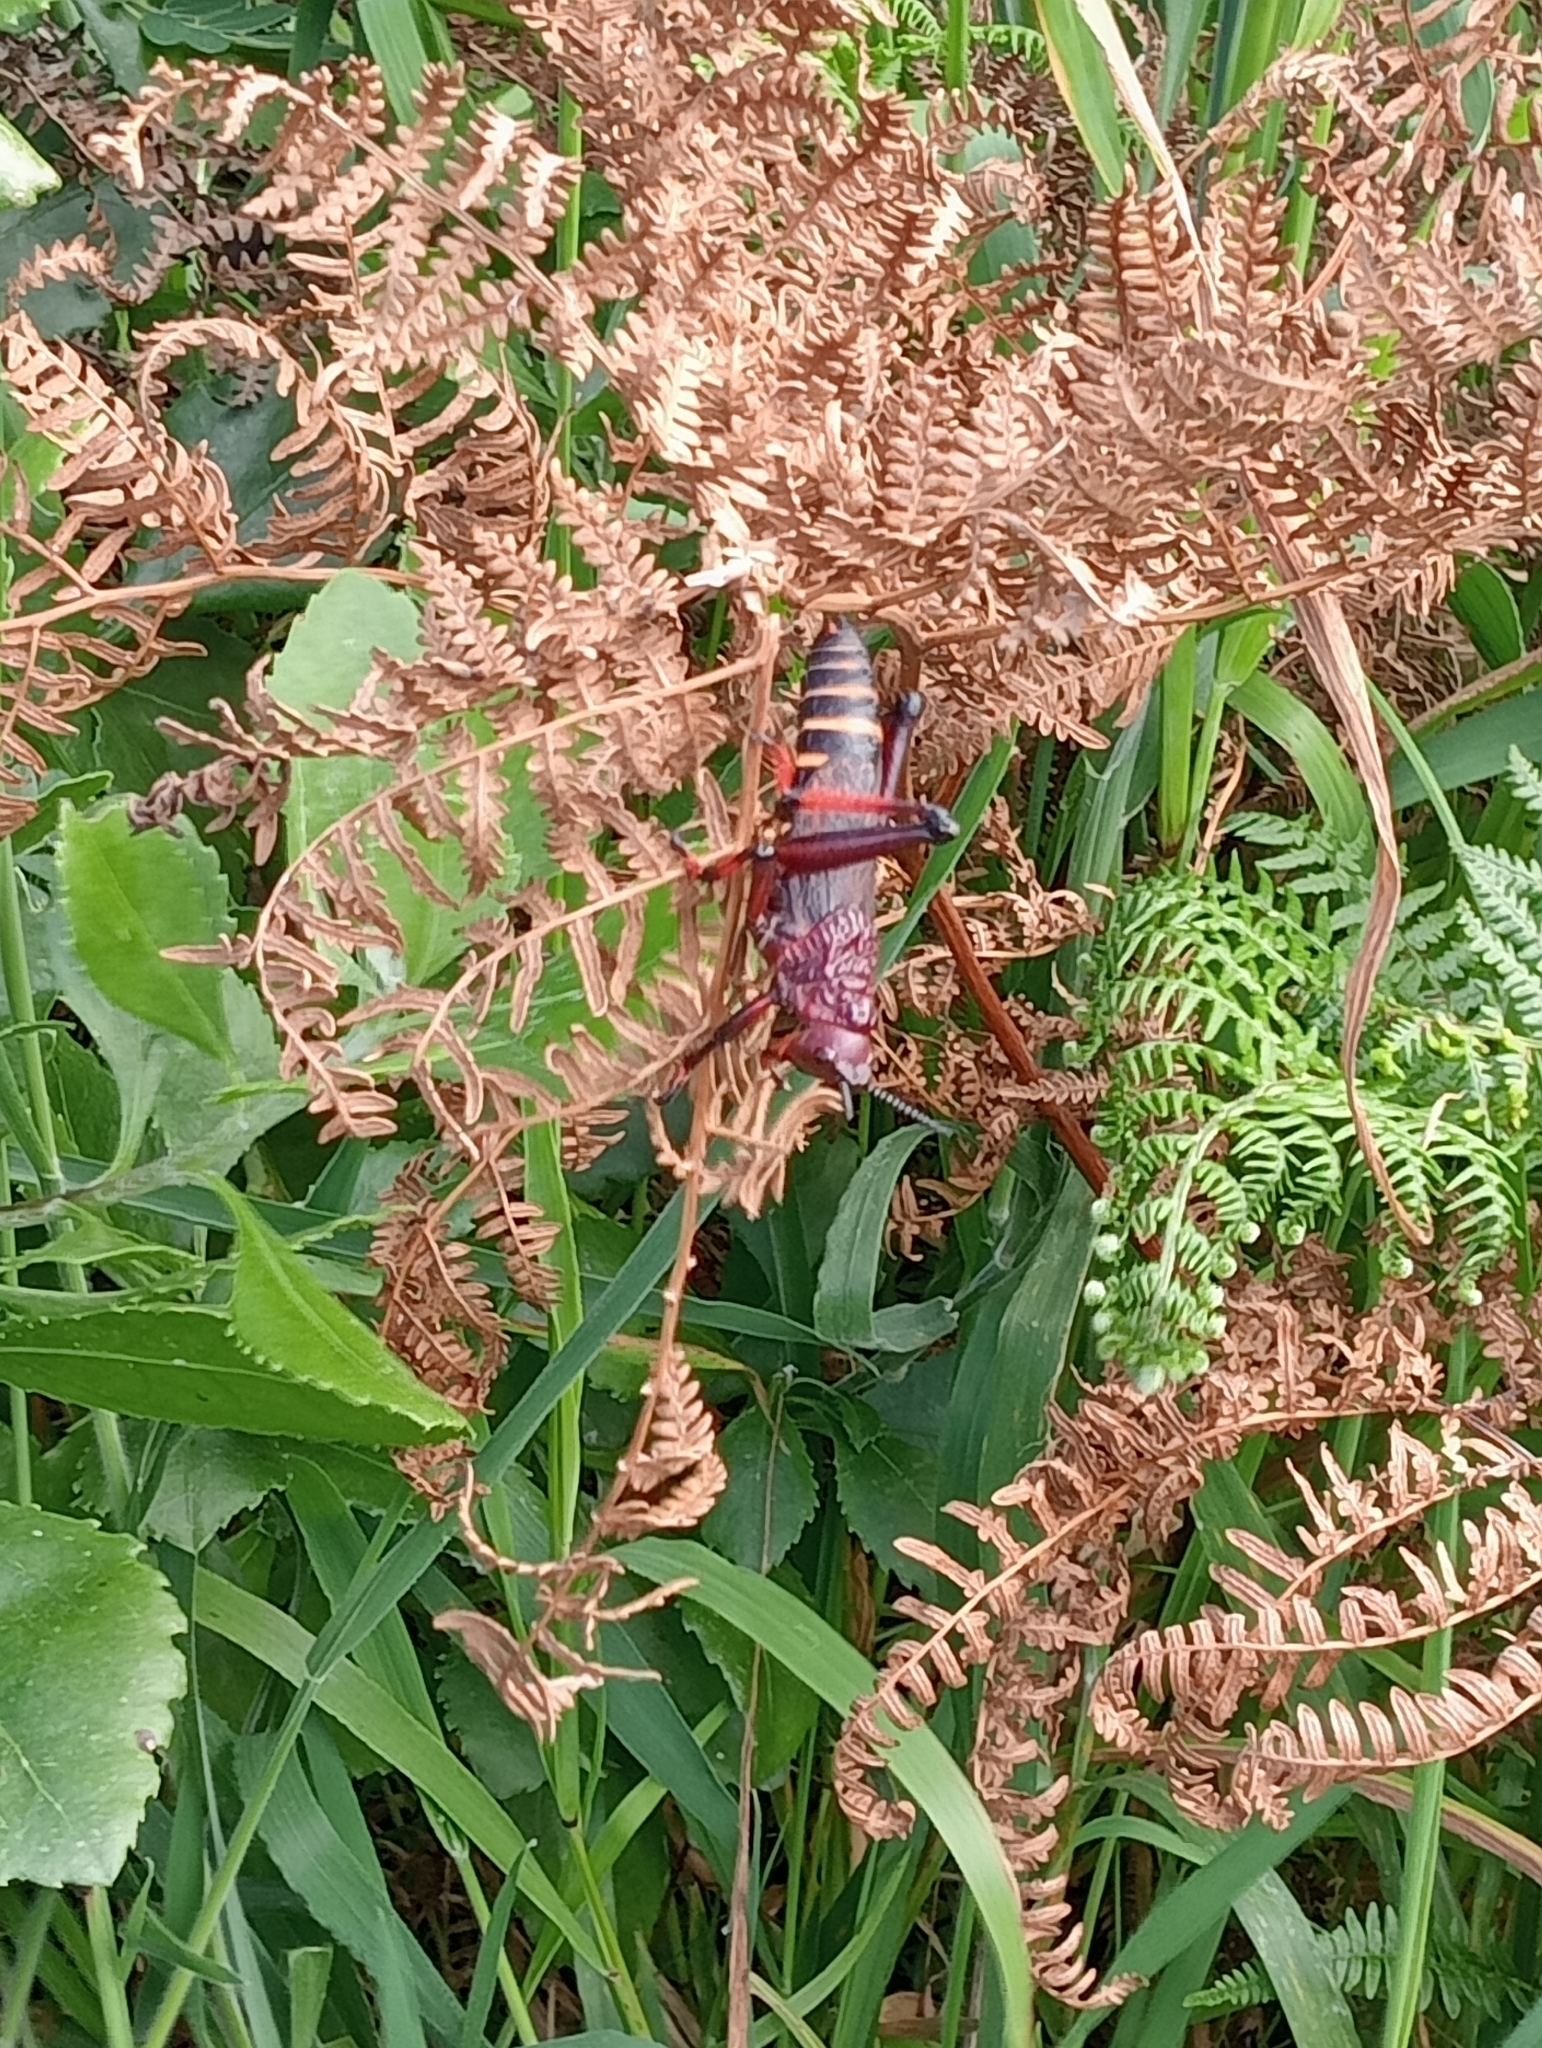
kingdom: Animalia
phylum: Arthropoda
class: Insecta
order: Orthoptera
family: Pyrgomorphidae
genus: Dictyophorus
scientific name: Dictyophorus spumans
